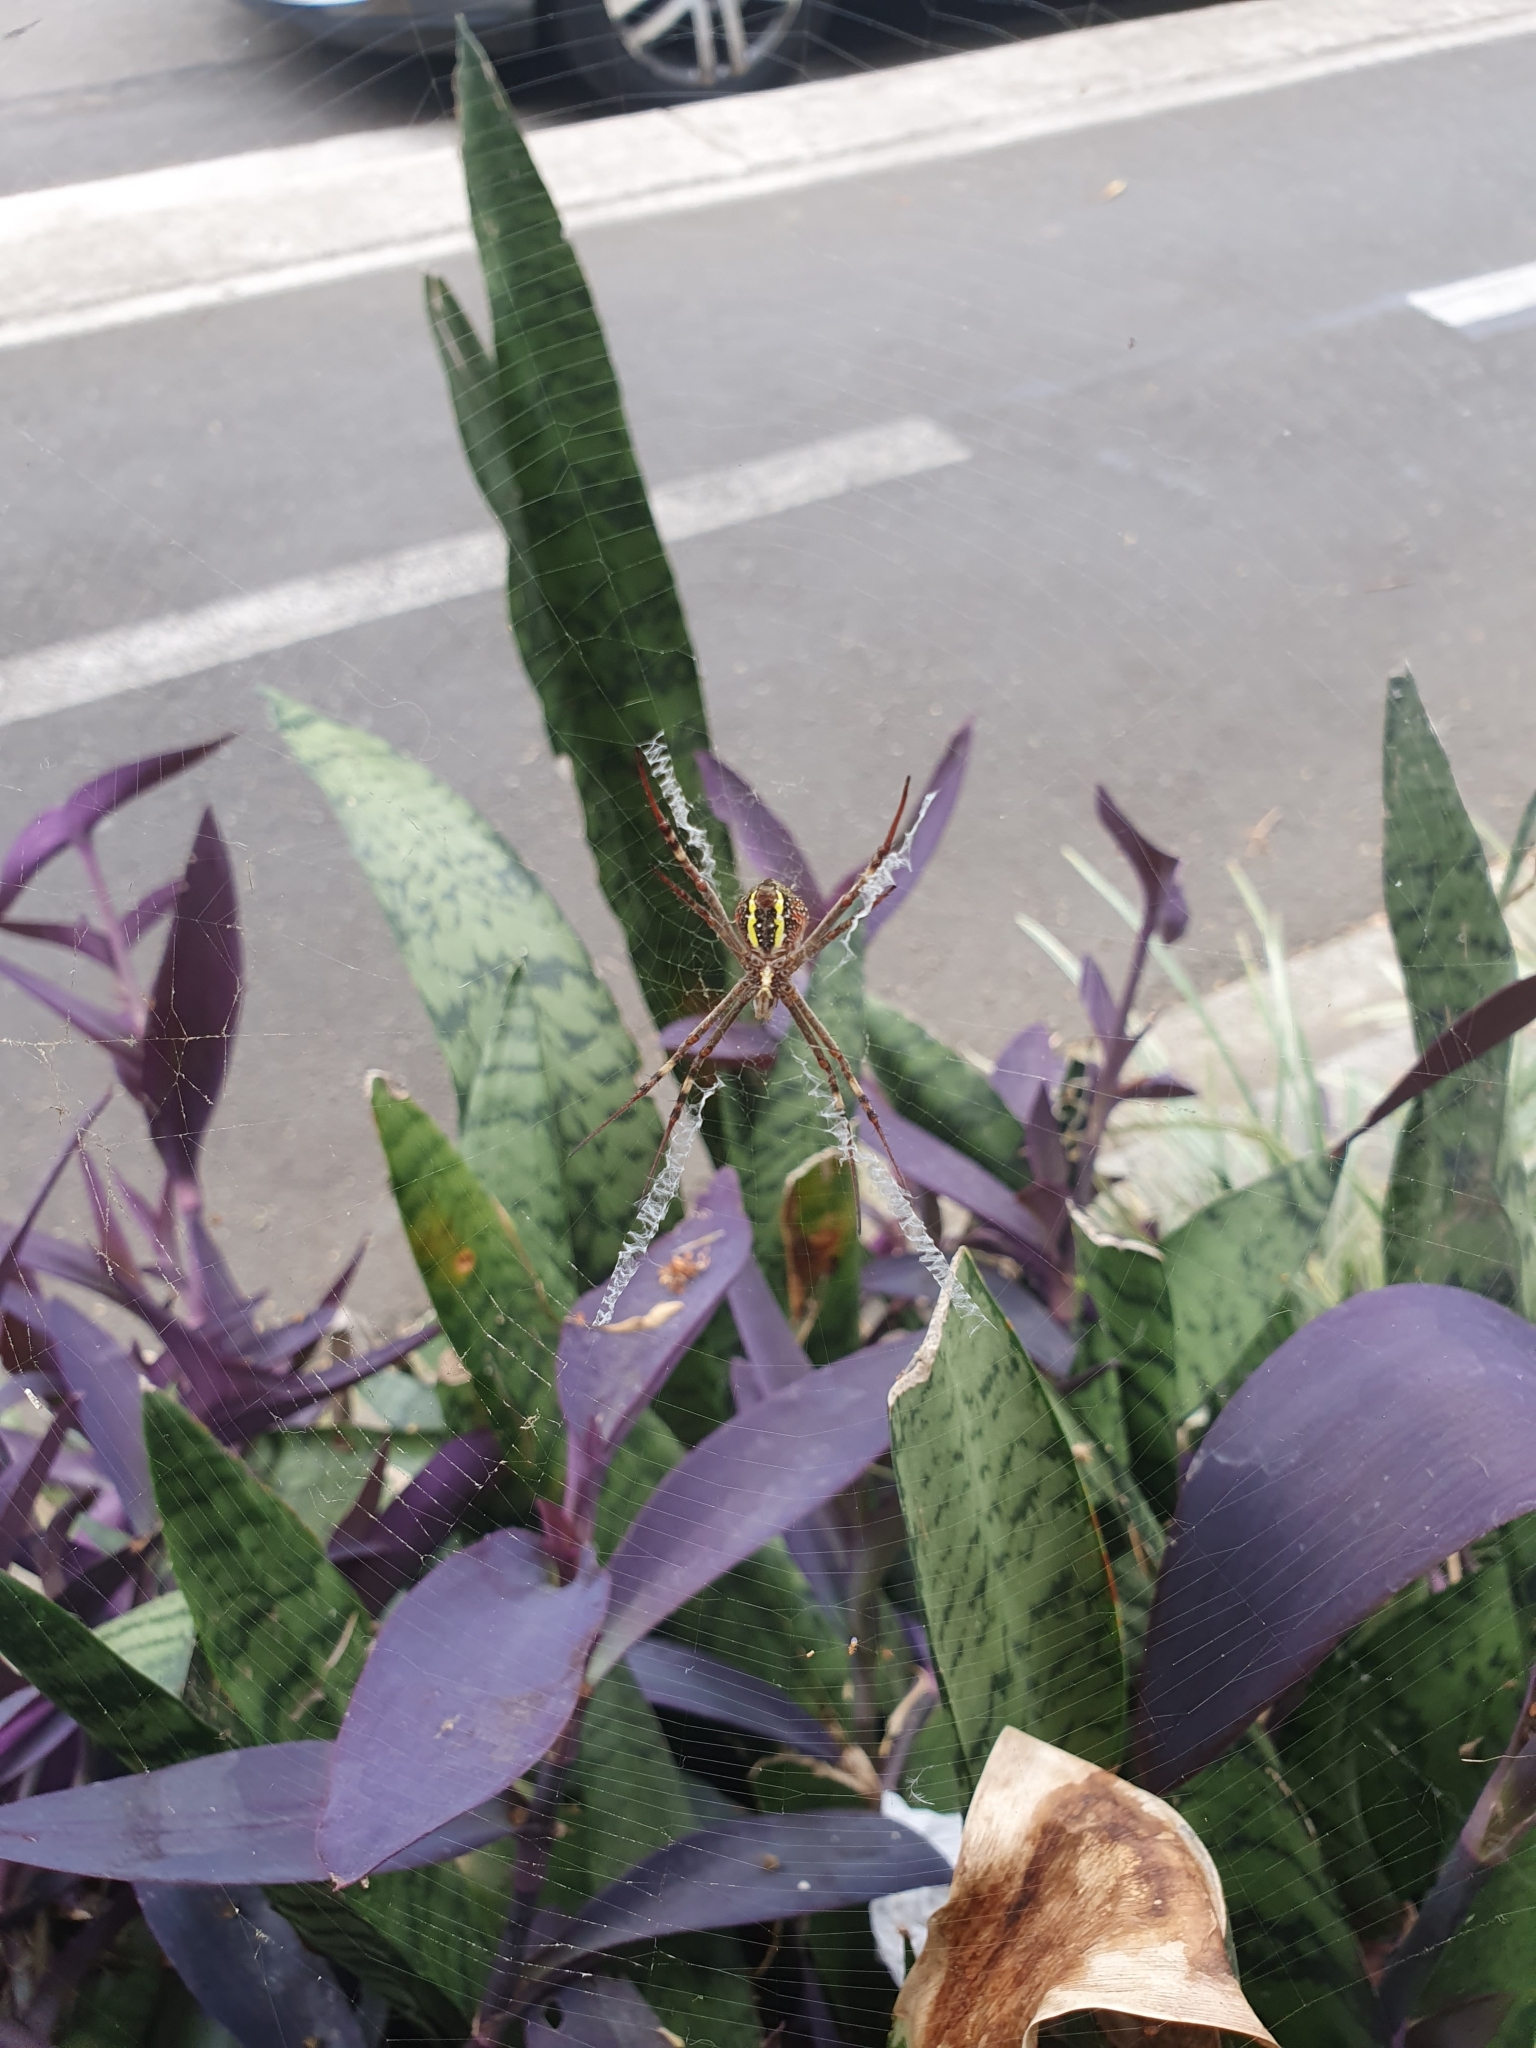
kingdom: Animalia
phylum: Arthropoda
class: Arachnida
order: Araneae
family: Araneidae
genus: Argiope
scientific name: Argiope keyserlingi
